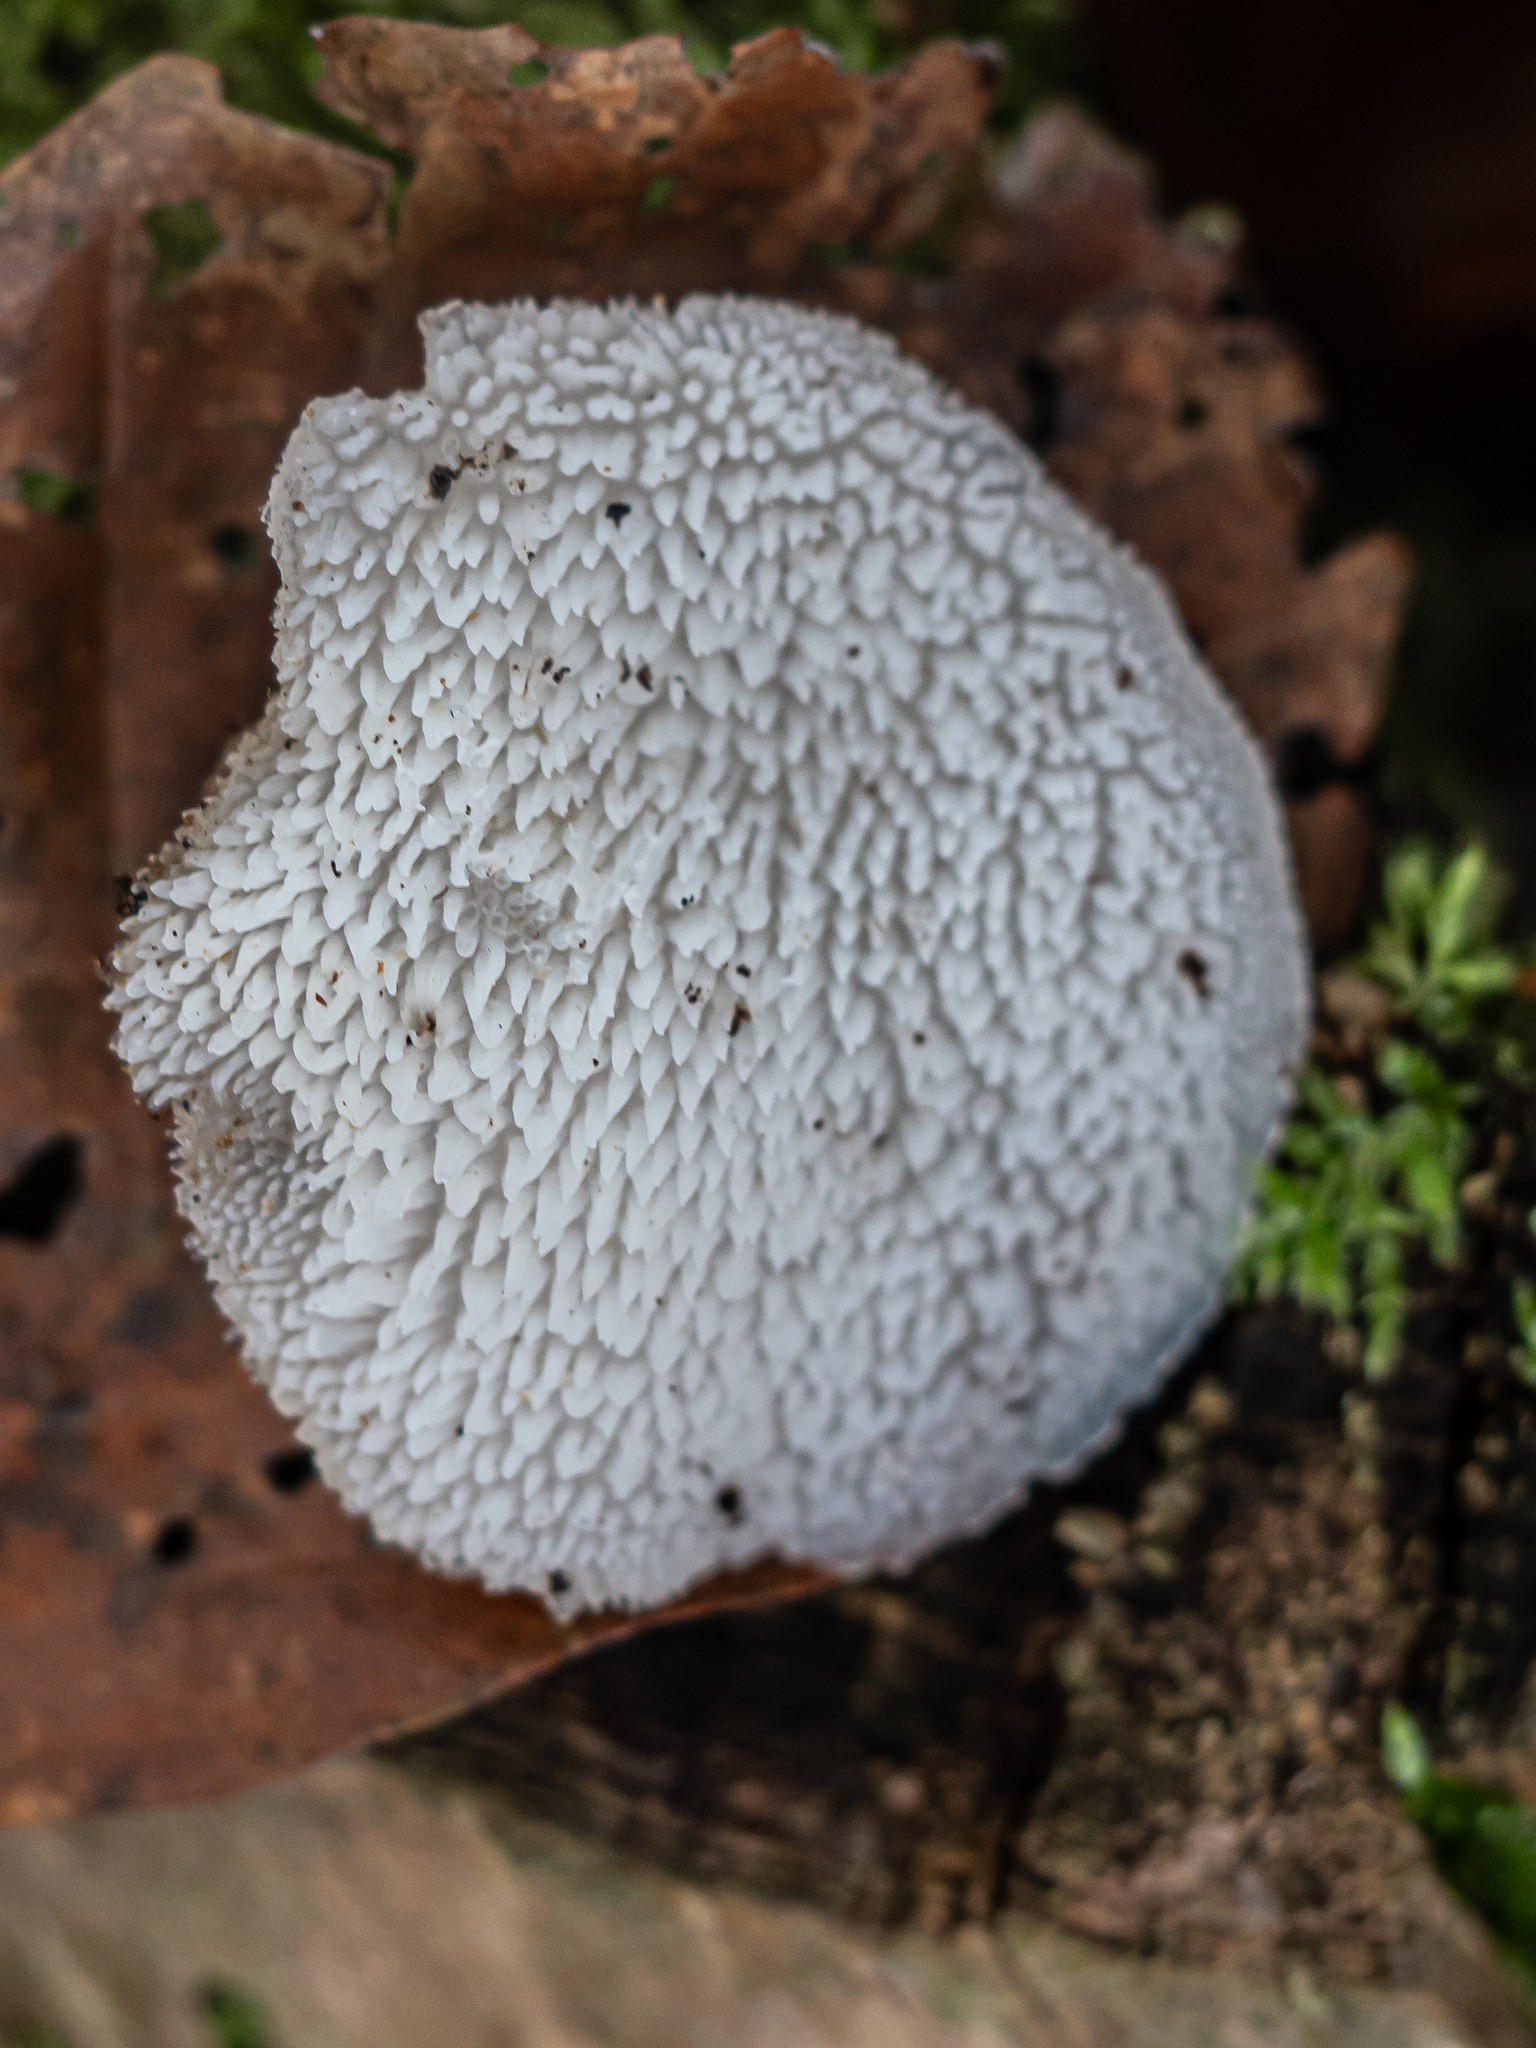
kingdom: Fungi
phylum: Basidiomycota
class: Agaricomycetes
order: Auriculariales
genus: Pseudohydnum
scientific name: Pseudohydnum gelatinosum
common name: Jelly tongue
